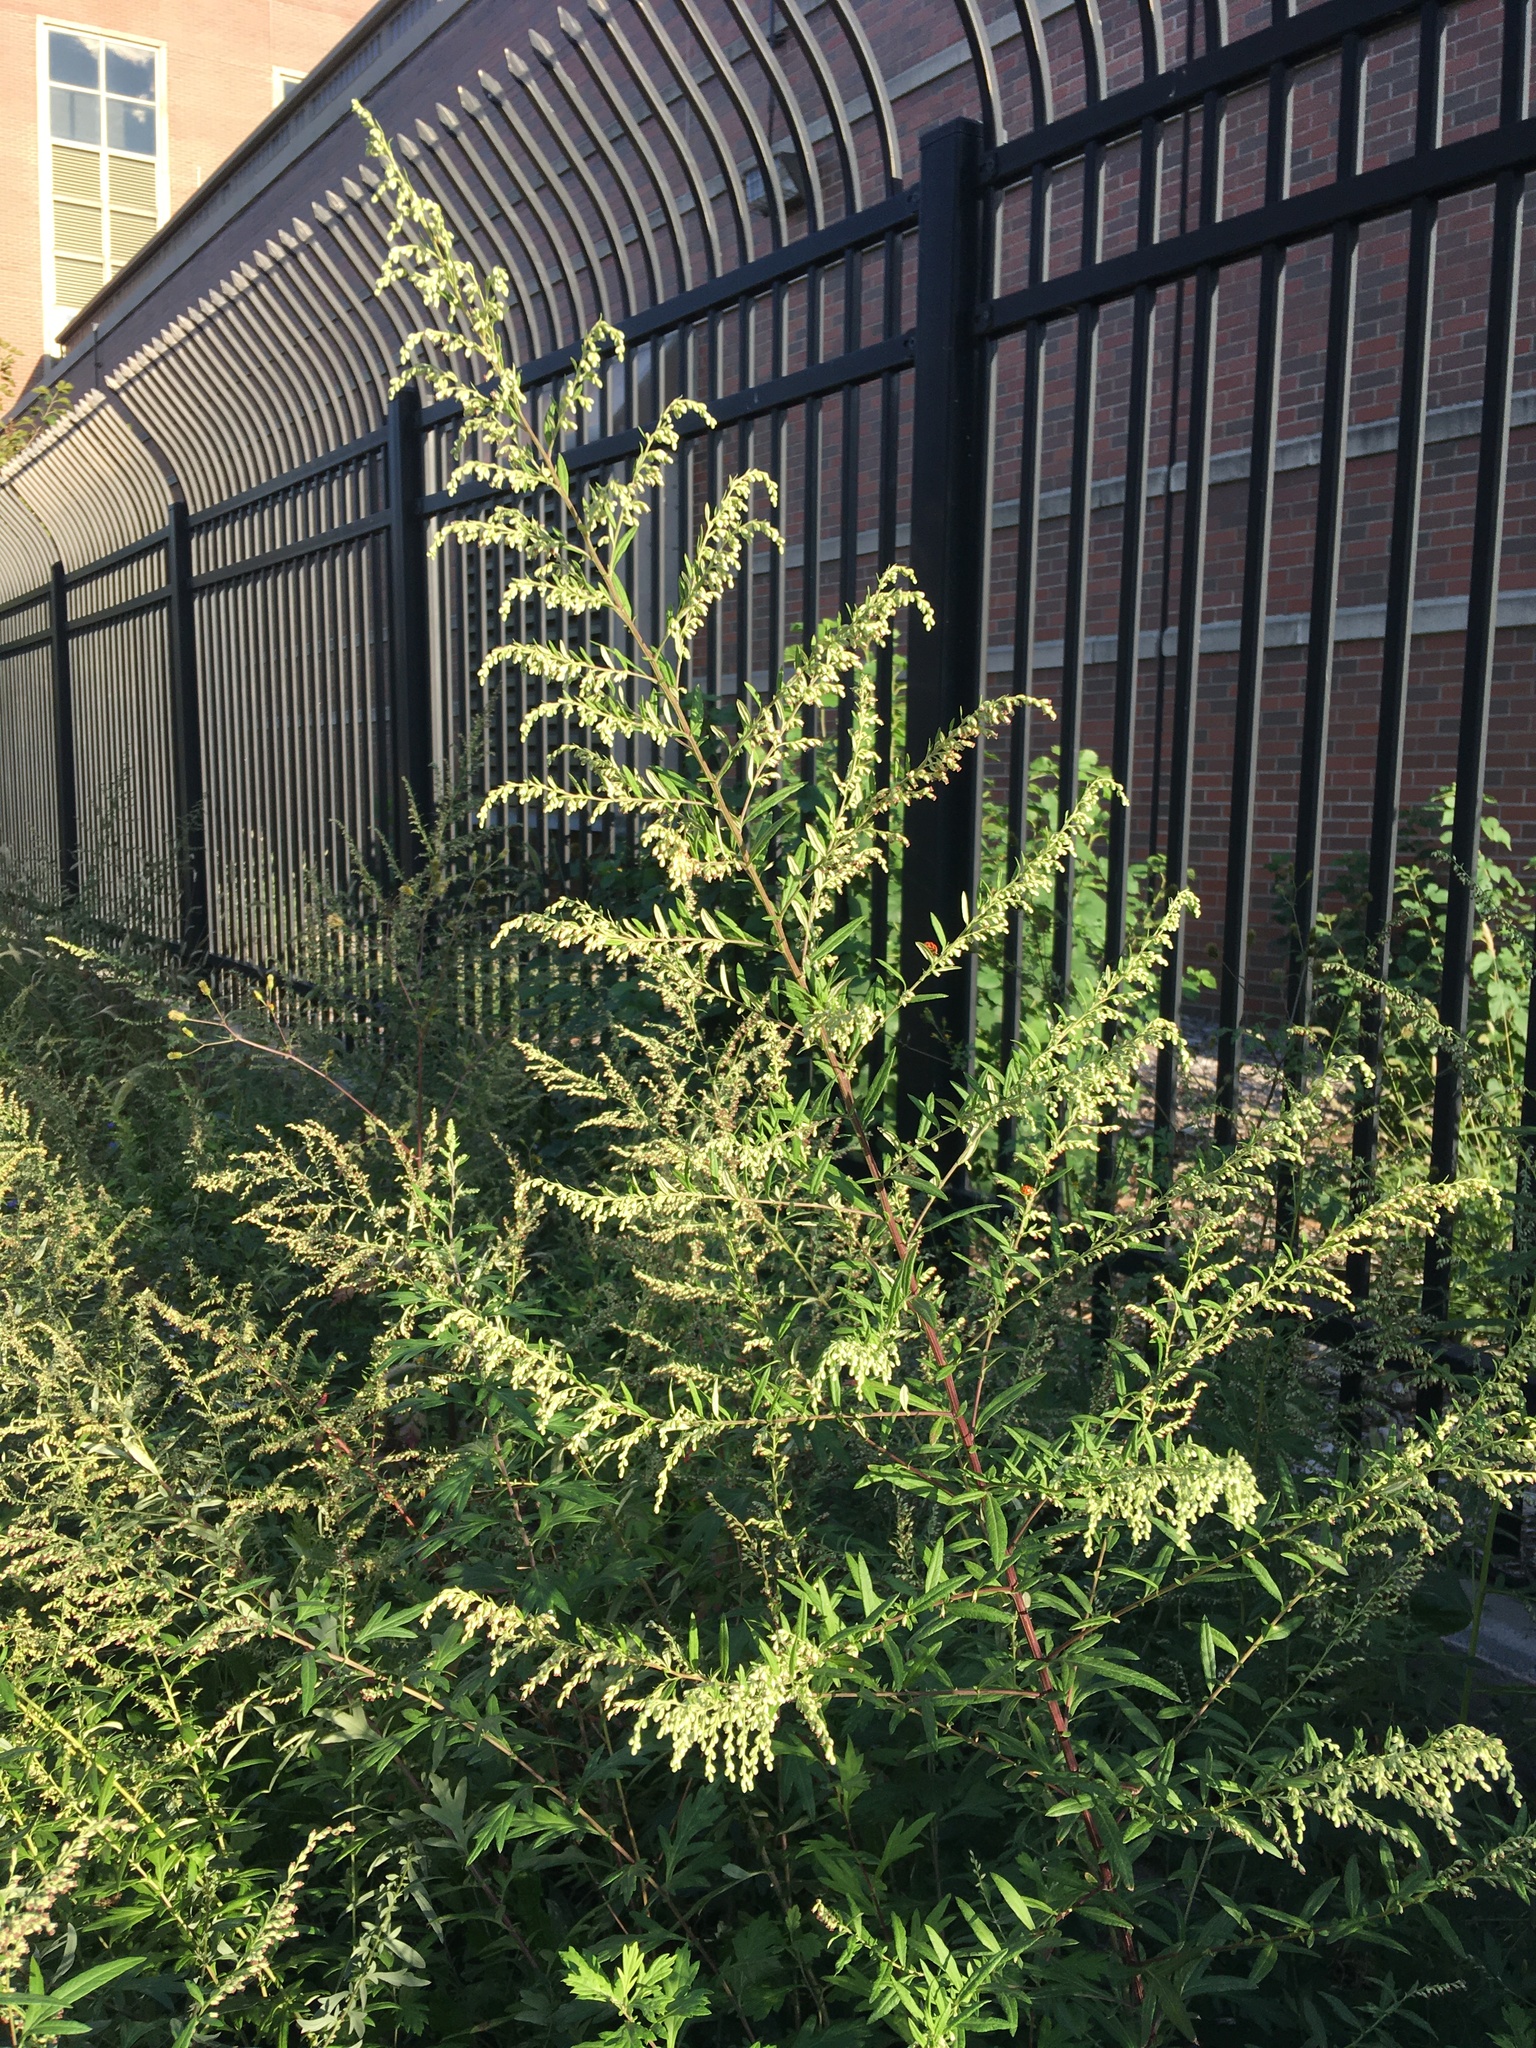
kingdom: Plantae
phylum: Tracheophyta
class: Magnoliopsida
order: Asterales
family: Asteraceae
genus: Artemisia
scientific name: Artemisia vulgaris
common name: Mugwort
